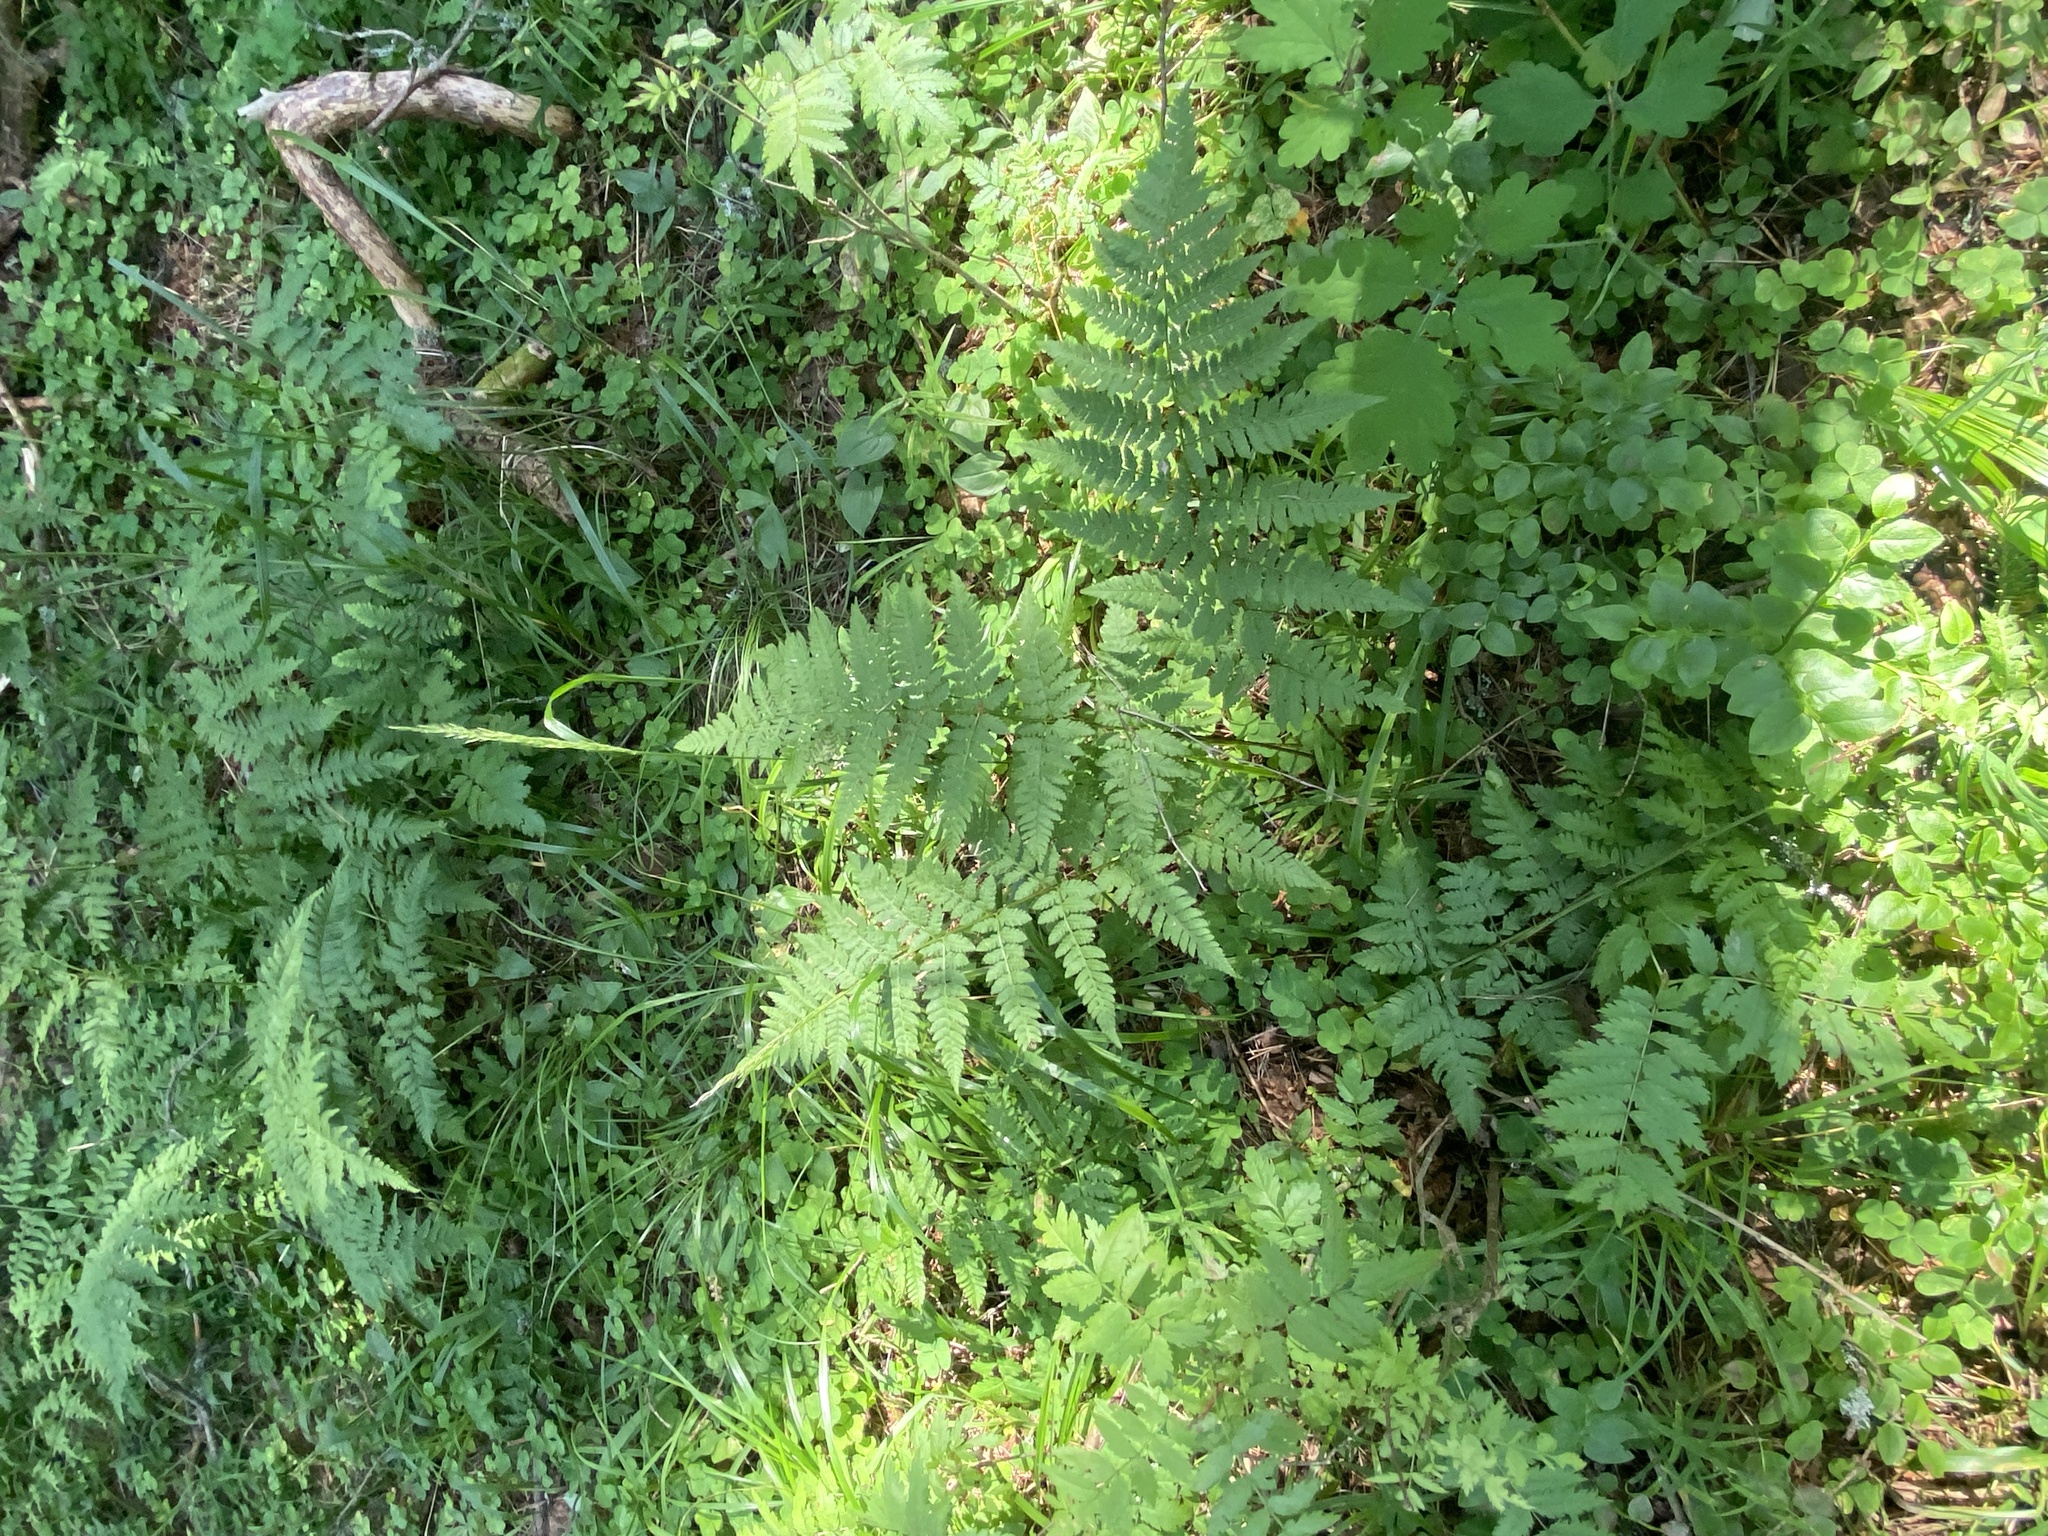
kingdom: Plantae
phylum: Tracheophyta
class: Polypodiopsida
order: Polypodiales
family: Dryopteridaceae
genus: Dryopteris
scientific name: Dryopteris carthusiana
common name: Narrow buckler-fern
